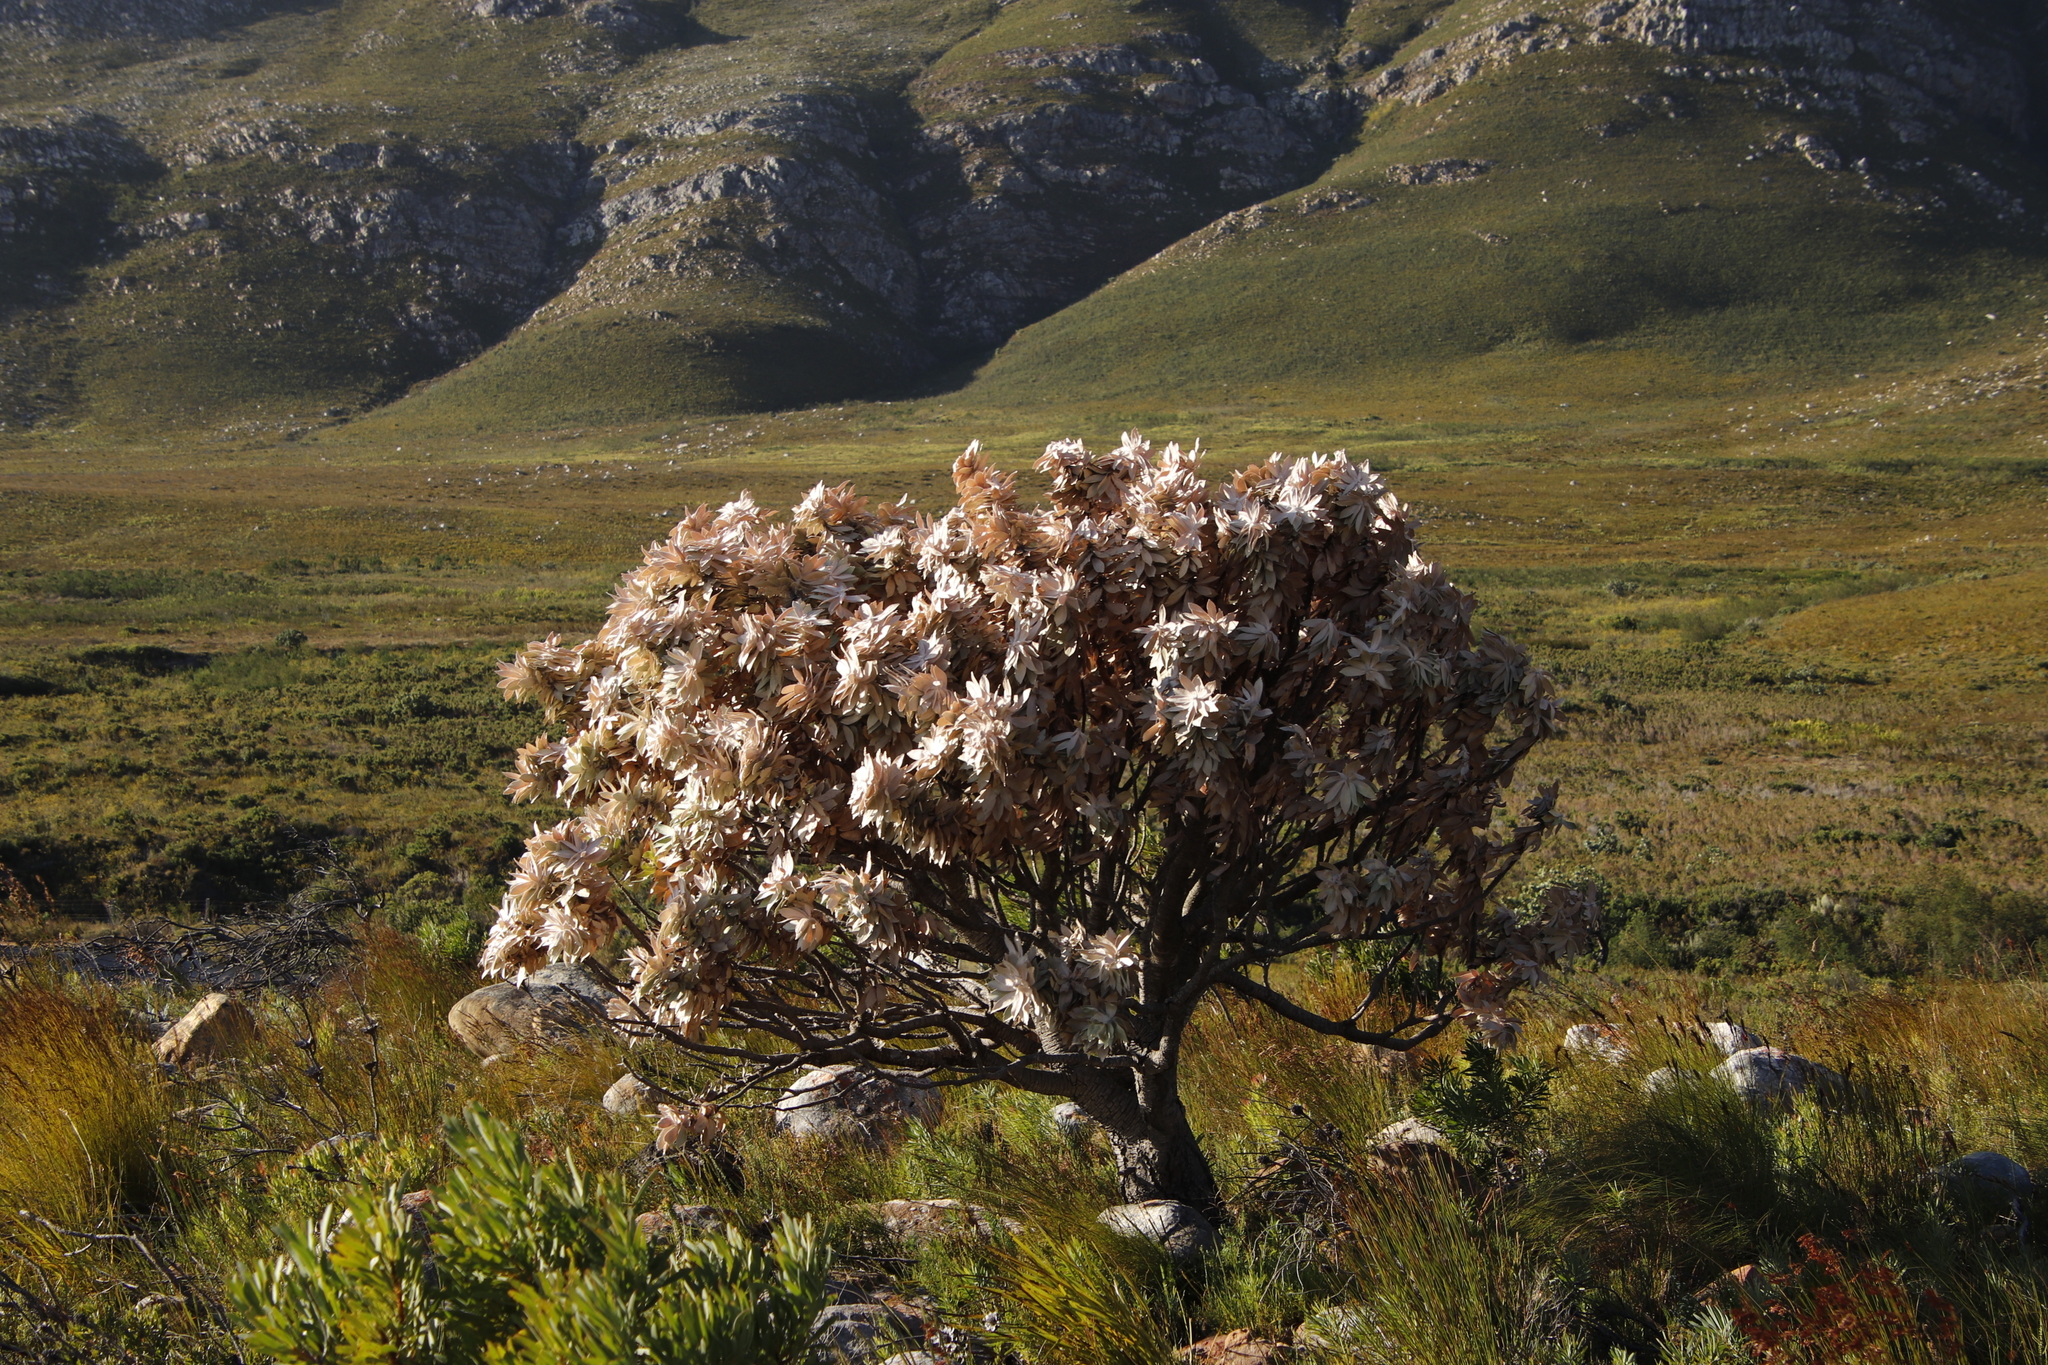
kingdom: Plantae
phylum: Tracheophyta
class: Magnoliopsida
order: Proteales
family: Proteaceae
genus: Leucospermum
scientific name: Leucospermum conocarpodendron
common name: Tree pincushion
